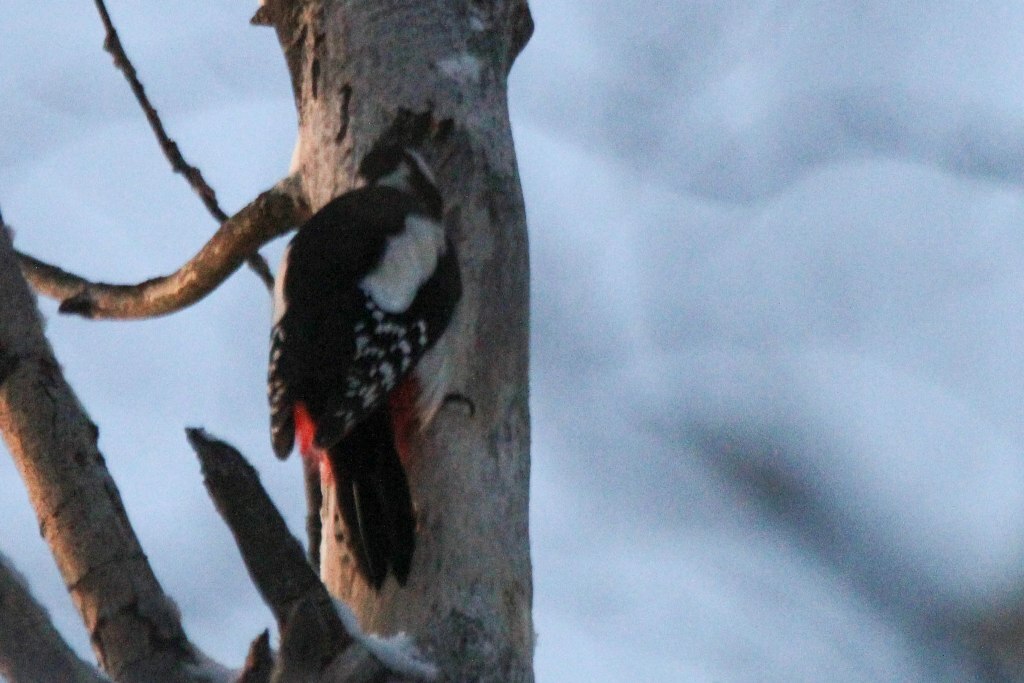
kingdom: Animalia
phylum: Chordata
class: Aves
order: Piciformes
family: Picidae
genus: Dendrocopos
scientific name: Dendrocopos major
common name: Great spotted woodpecker
